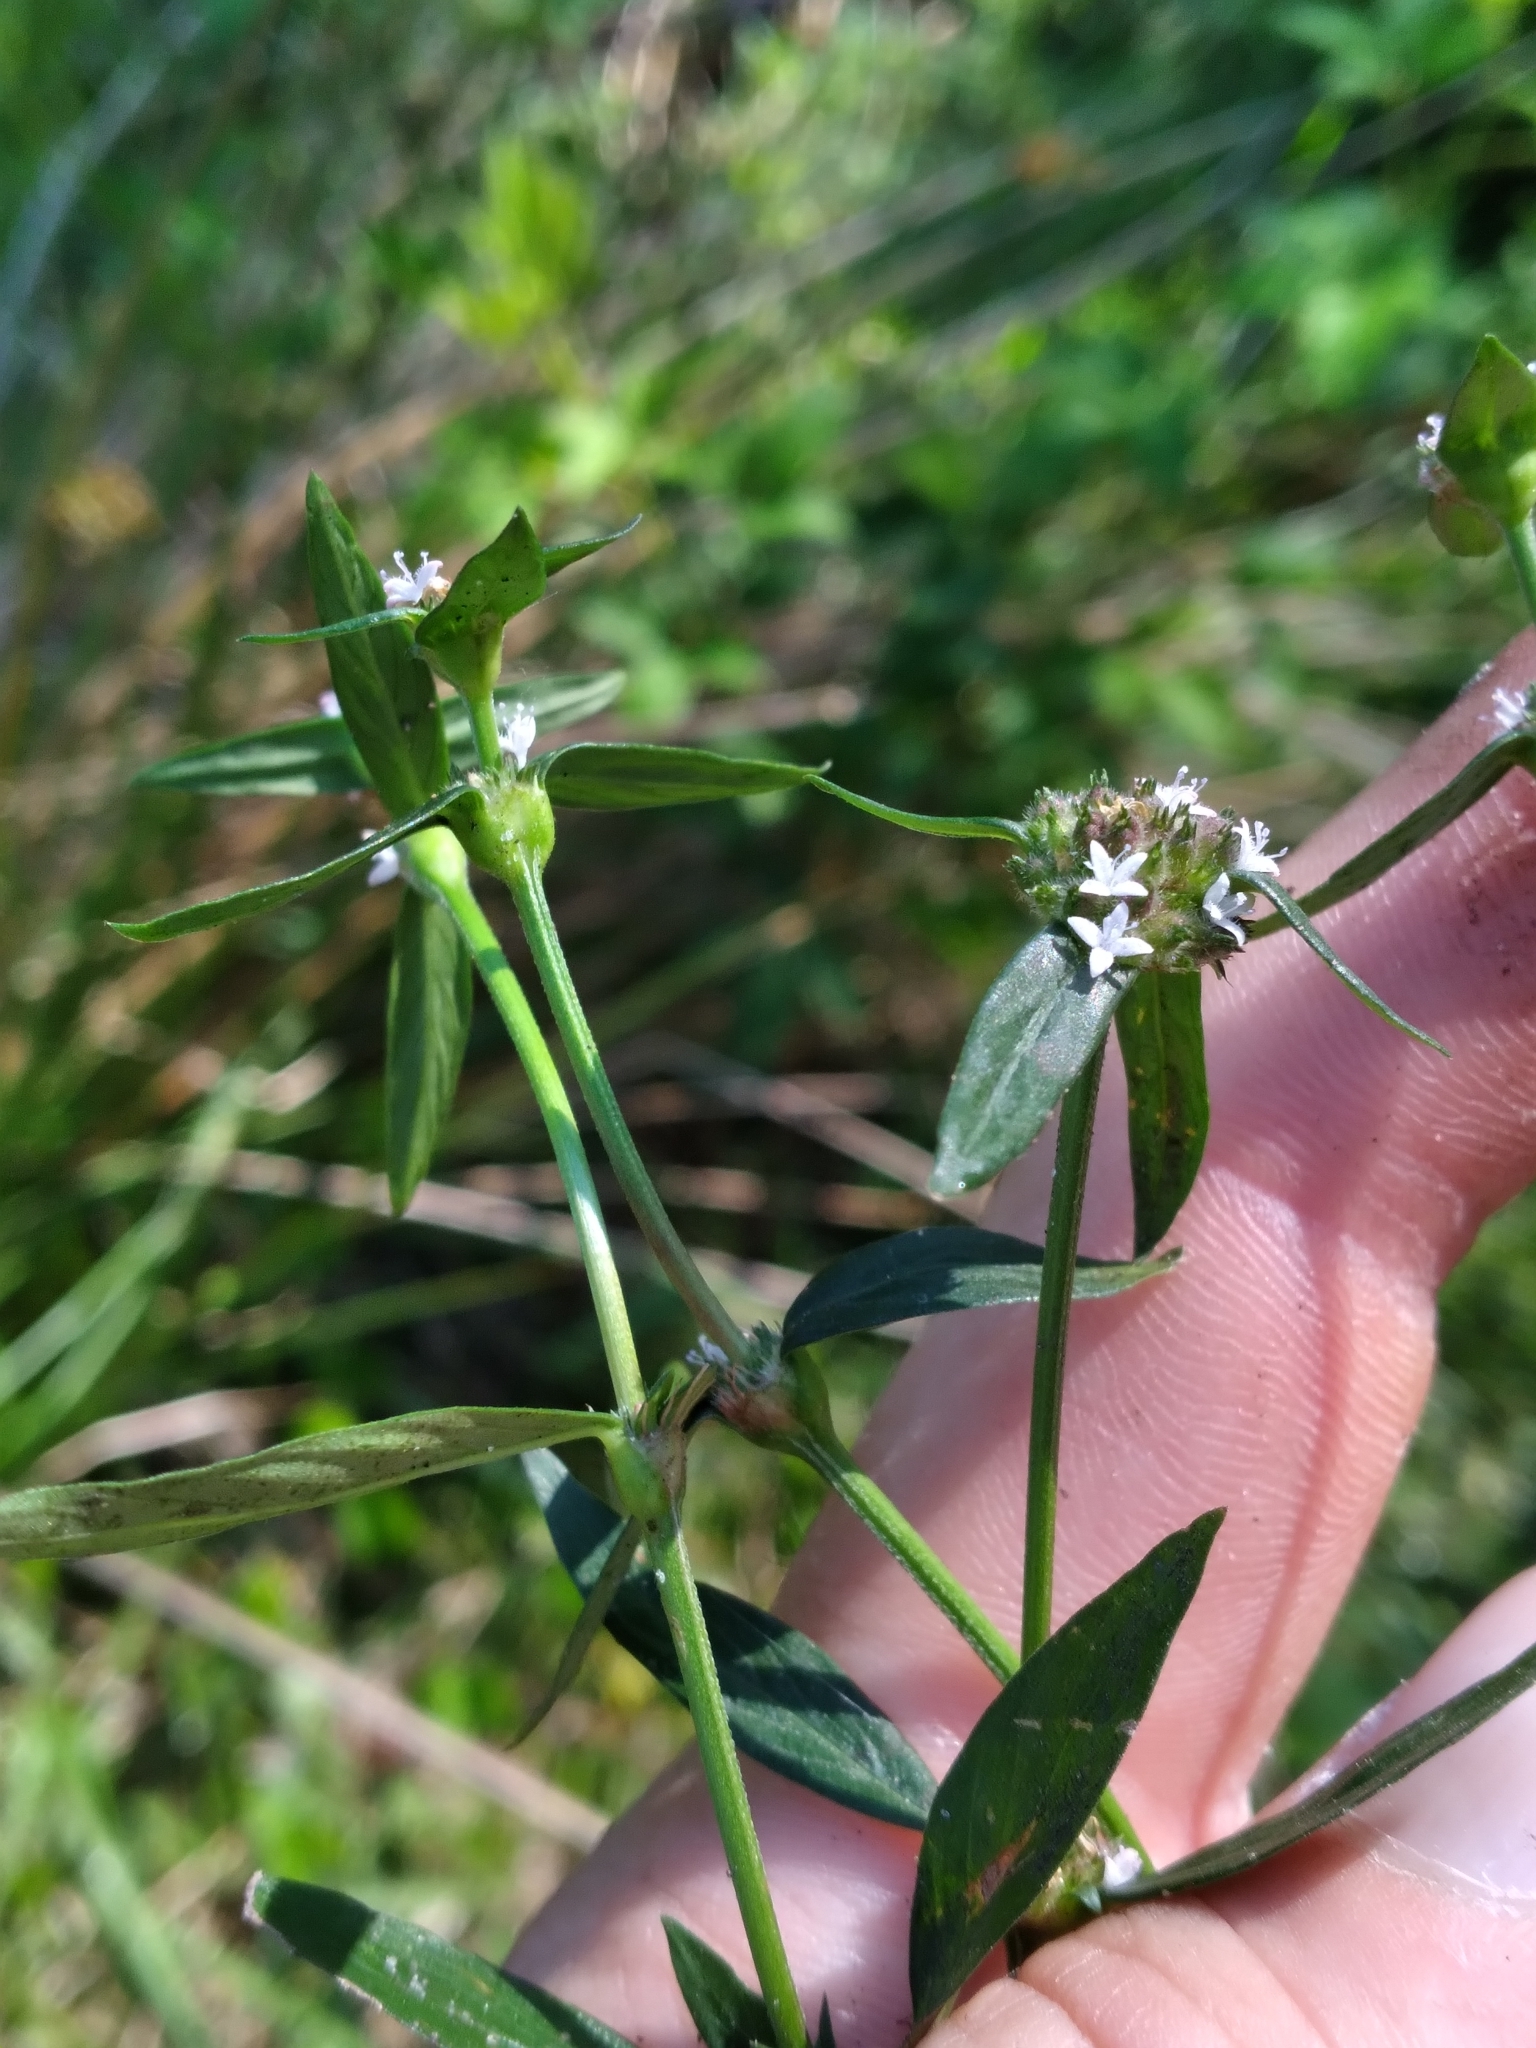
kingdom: Plantae
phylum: Tracheophyta
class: Magnoliopsida
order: Gentianales
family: Rubiaceae
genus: Spermacoce
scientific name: Spermacoce remota
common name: Woodland false buttonweed
